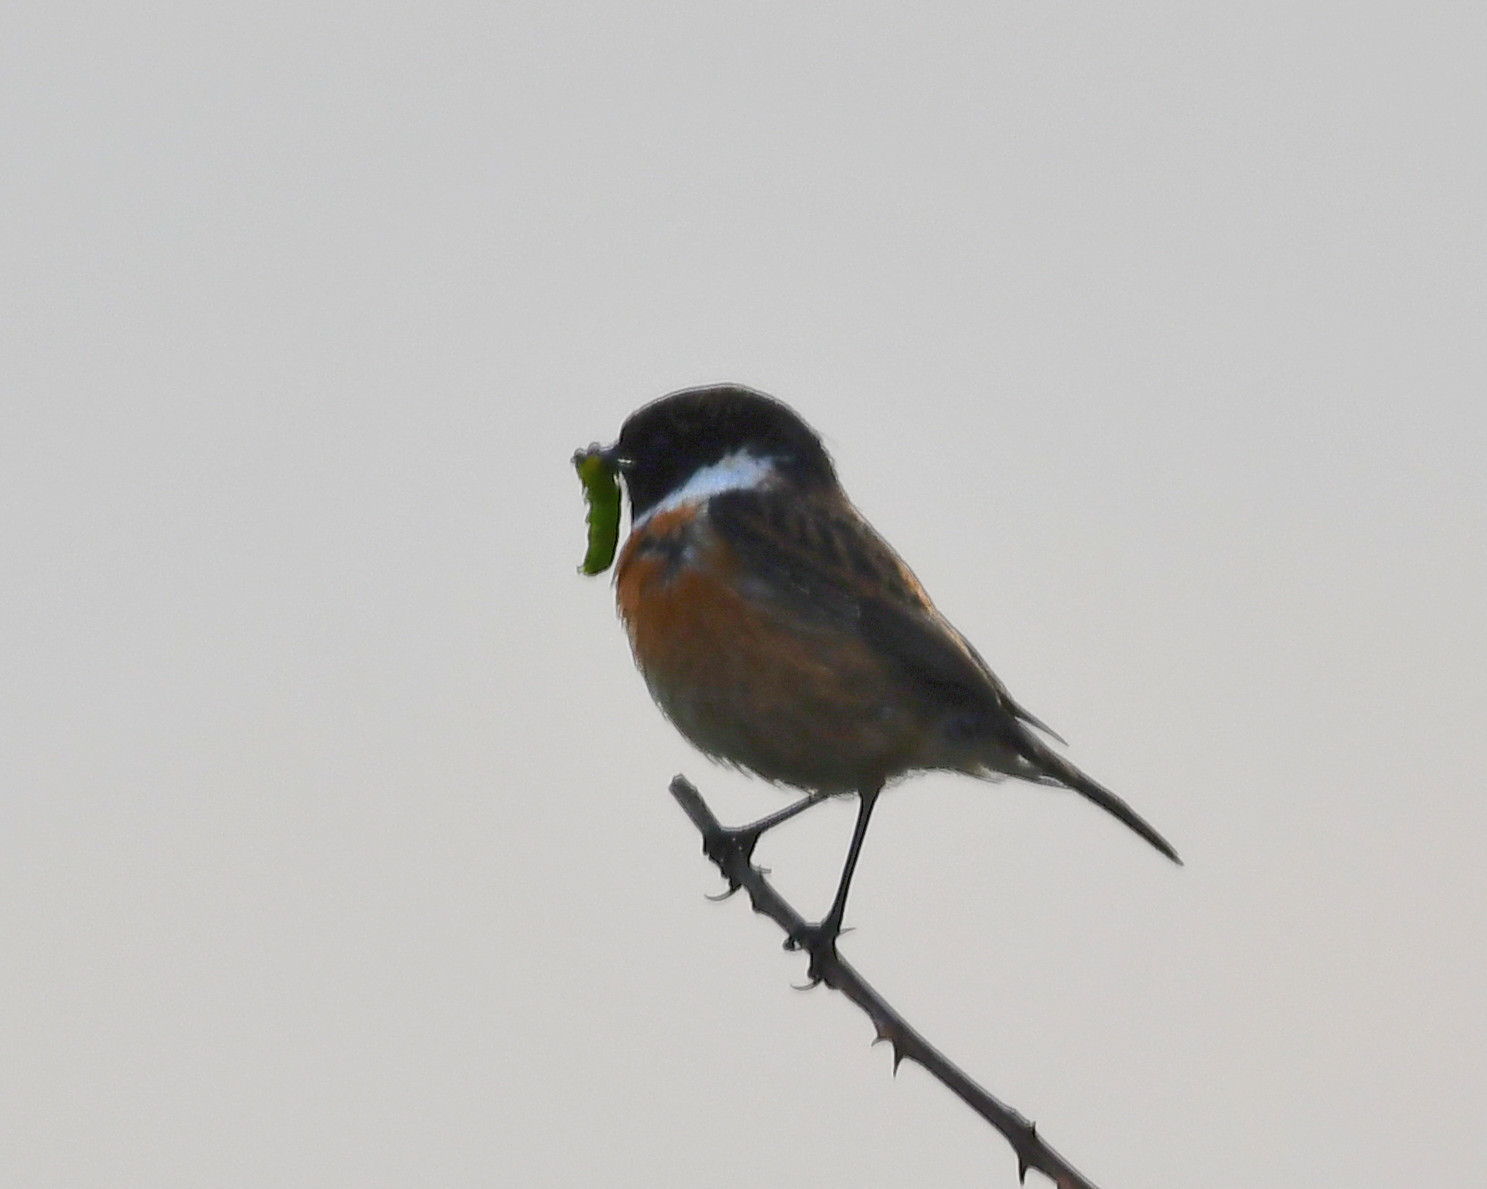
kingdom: Animalia
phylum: Chordata
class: Aves
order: Passeriformes
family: Muscicapidae
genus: Saxicola
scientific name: Saxicola rubicola
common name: European stonechat
